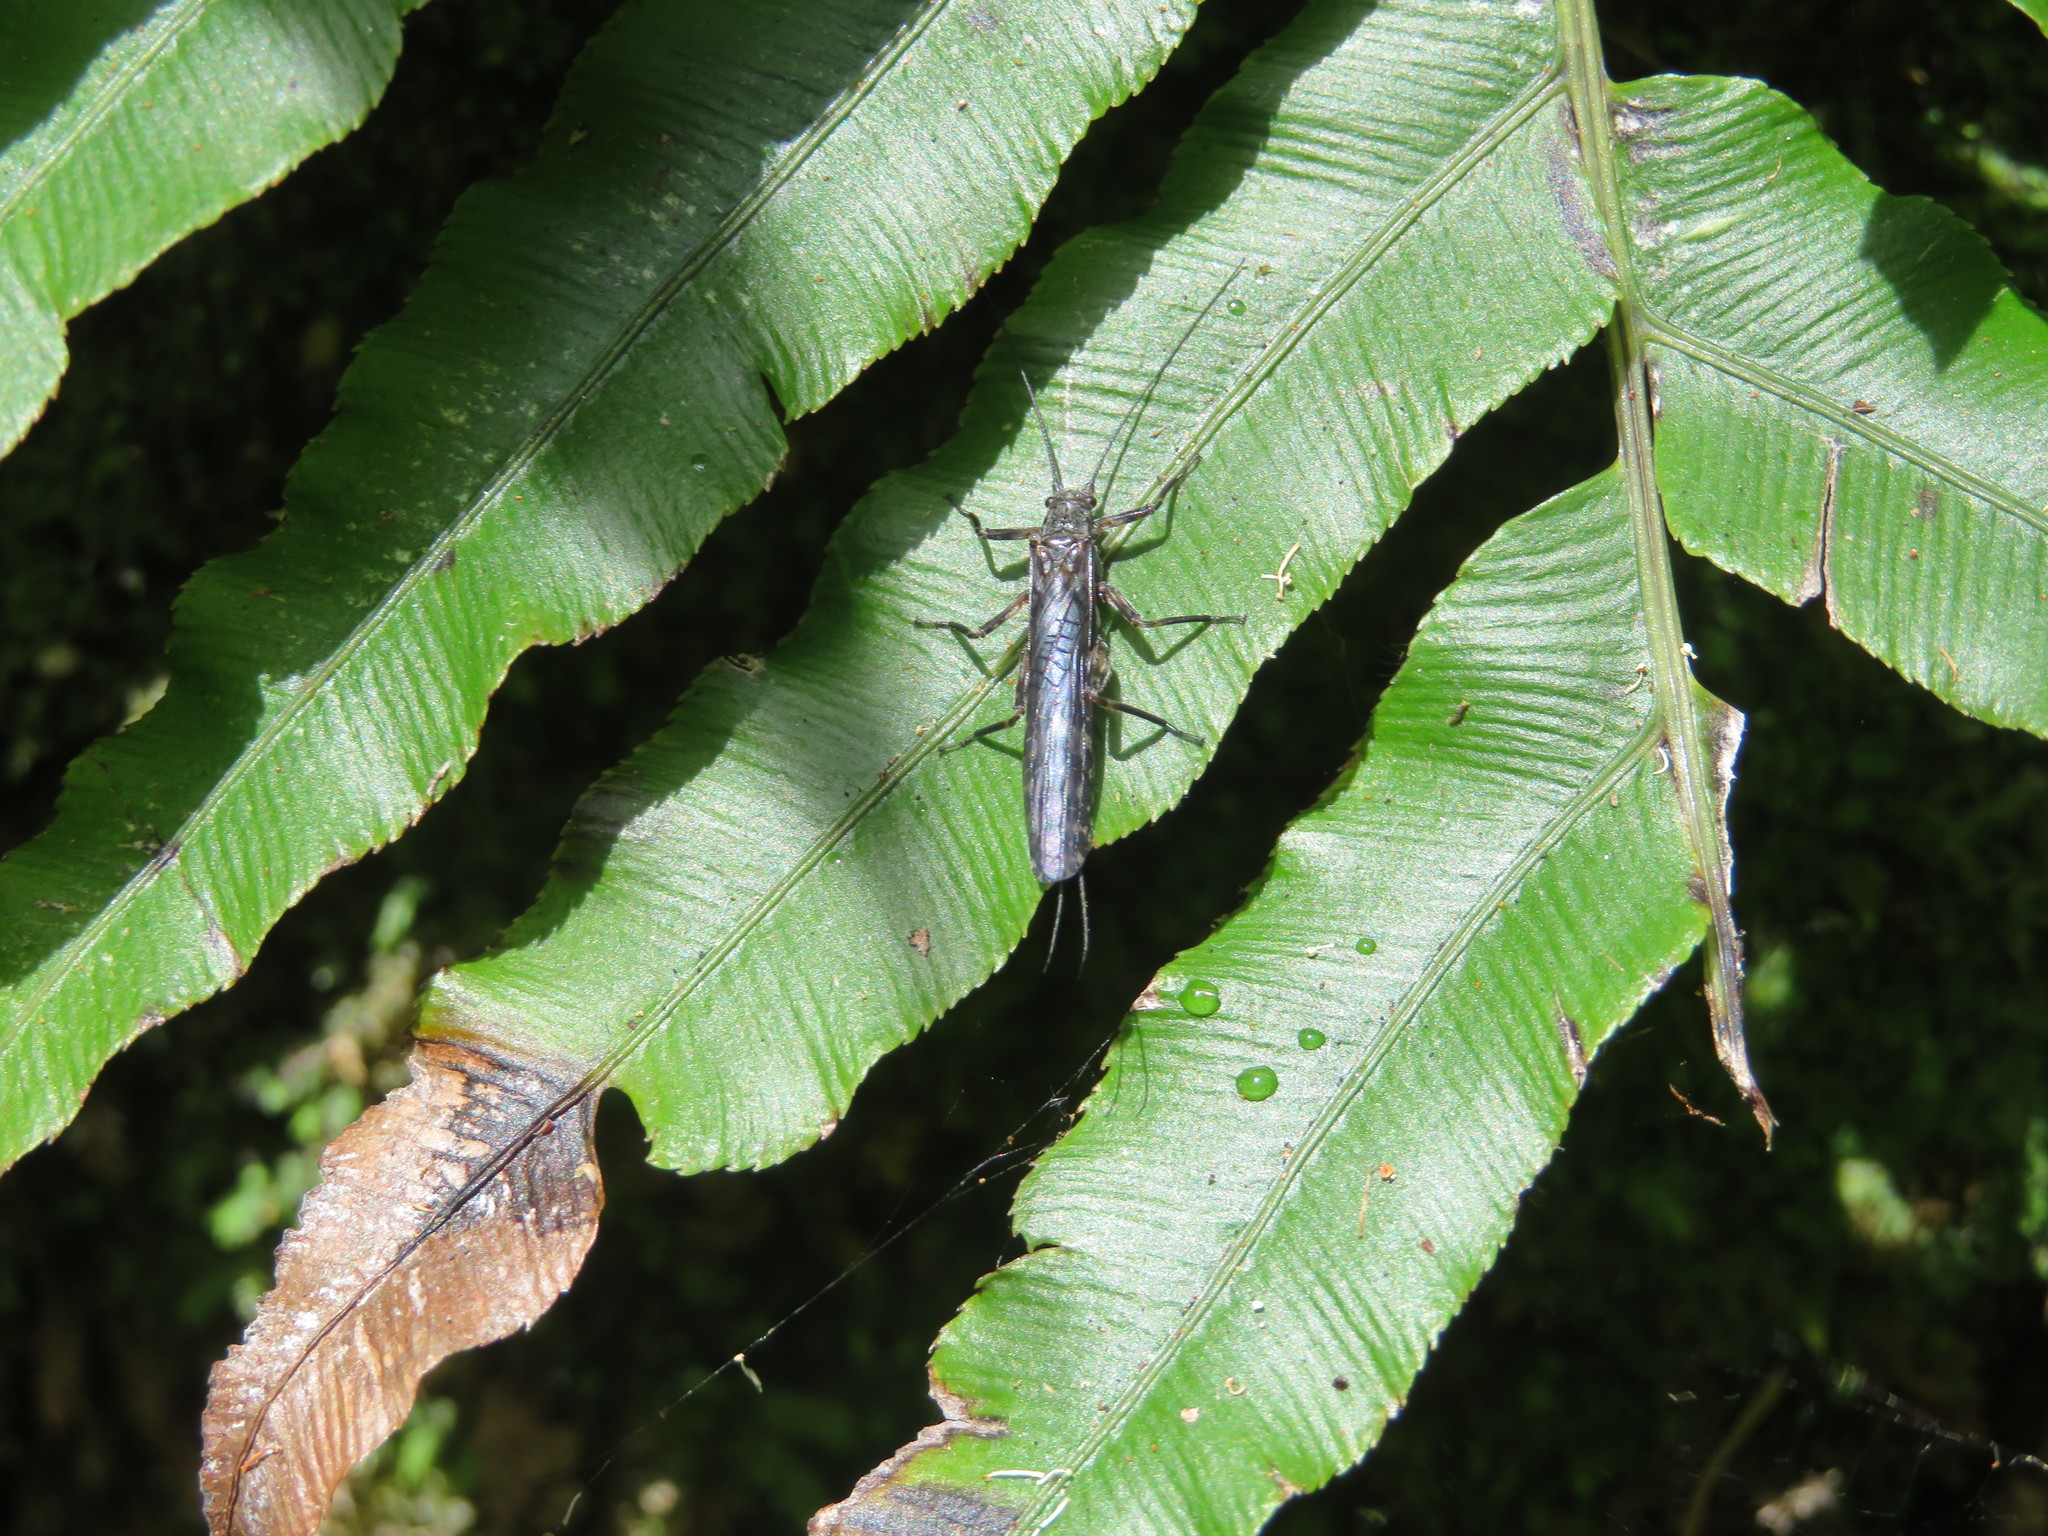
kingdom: Animalia
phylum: Arthropoda
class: Insecta
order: Plecoptera
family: Gripopterygidae
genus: Zelandoperla
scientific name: Zelandoperla decorata
